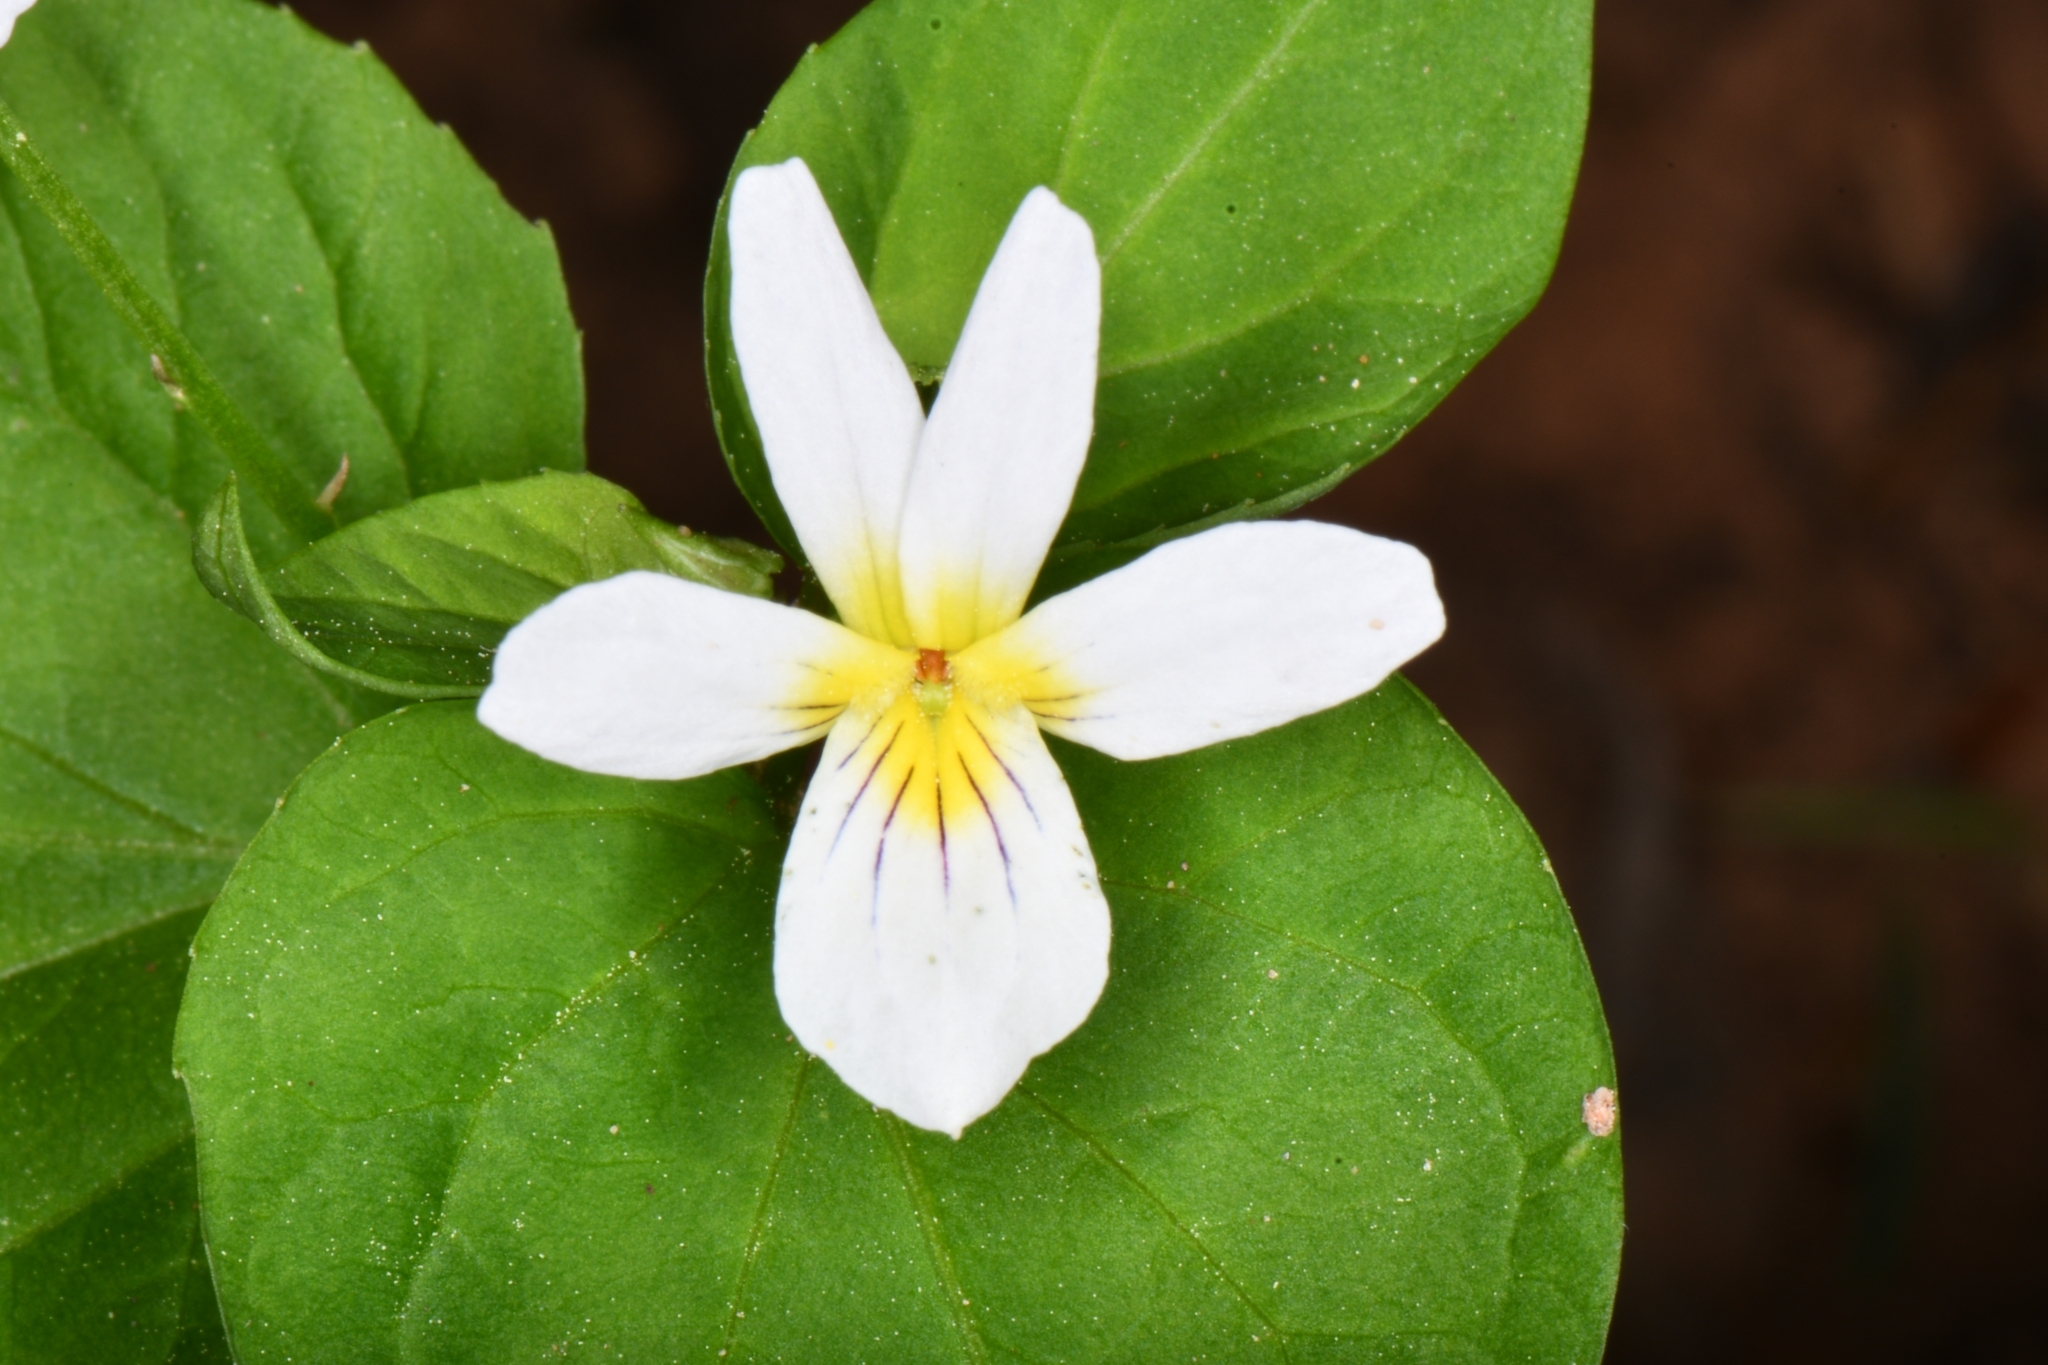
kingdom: Plantae
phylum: Tracheophyta
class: Magnoliopsida
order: Malpighiales
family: Violaceae
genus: Viola
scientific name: Viola canadensis
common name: Canada violet
